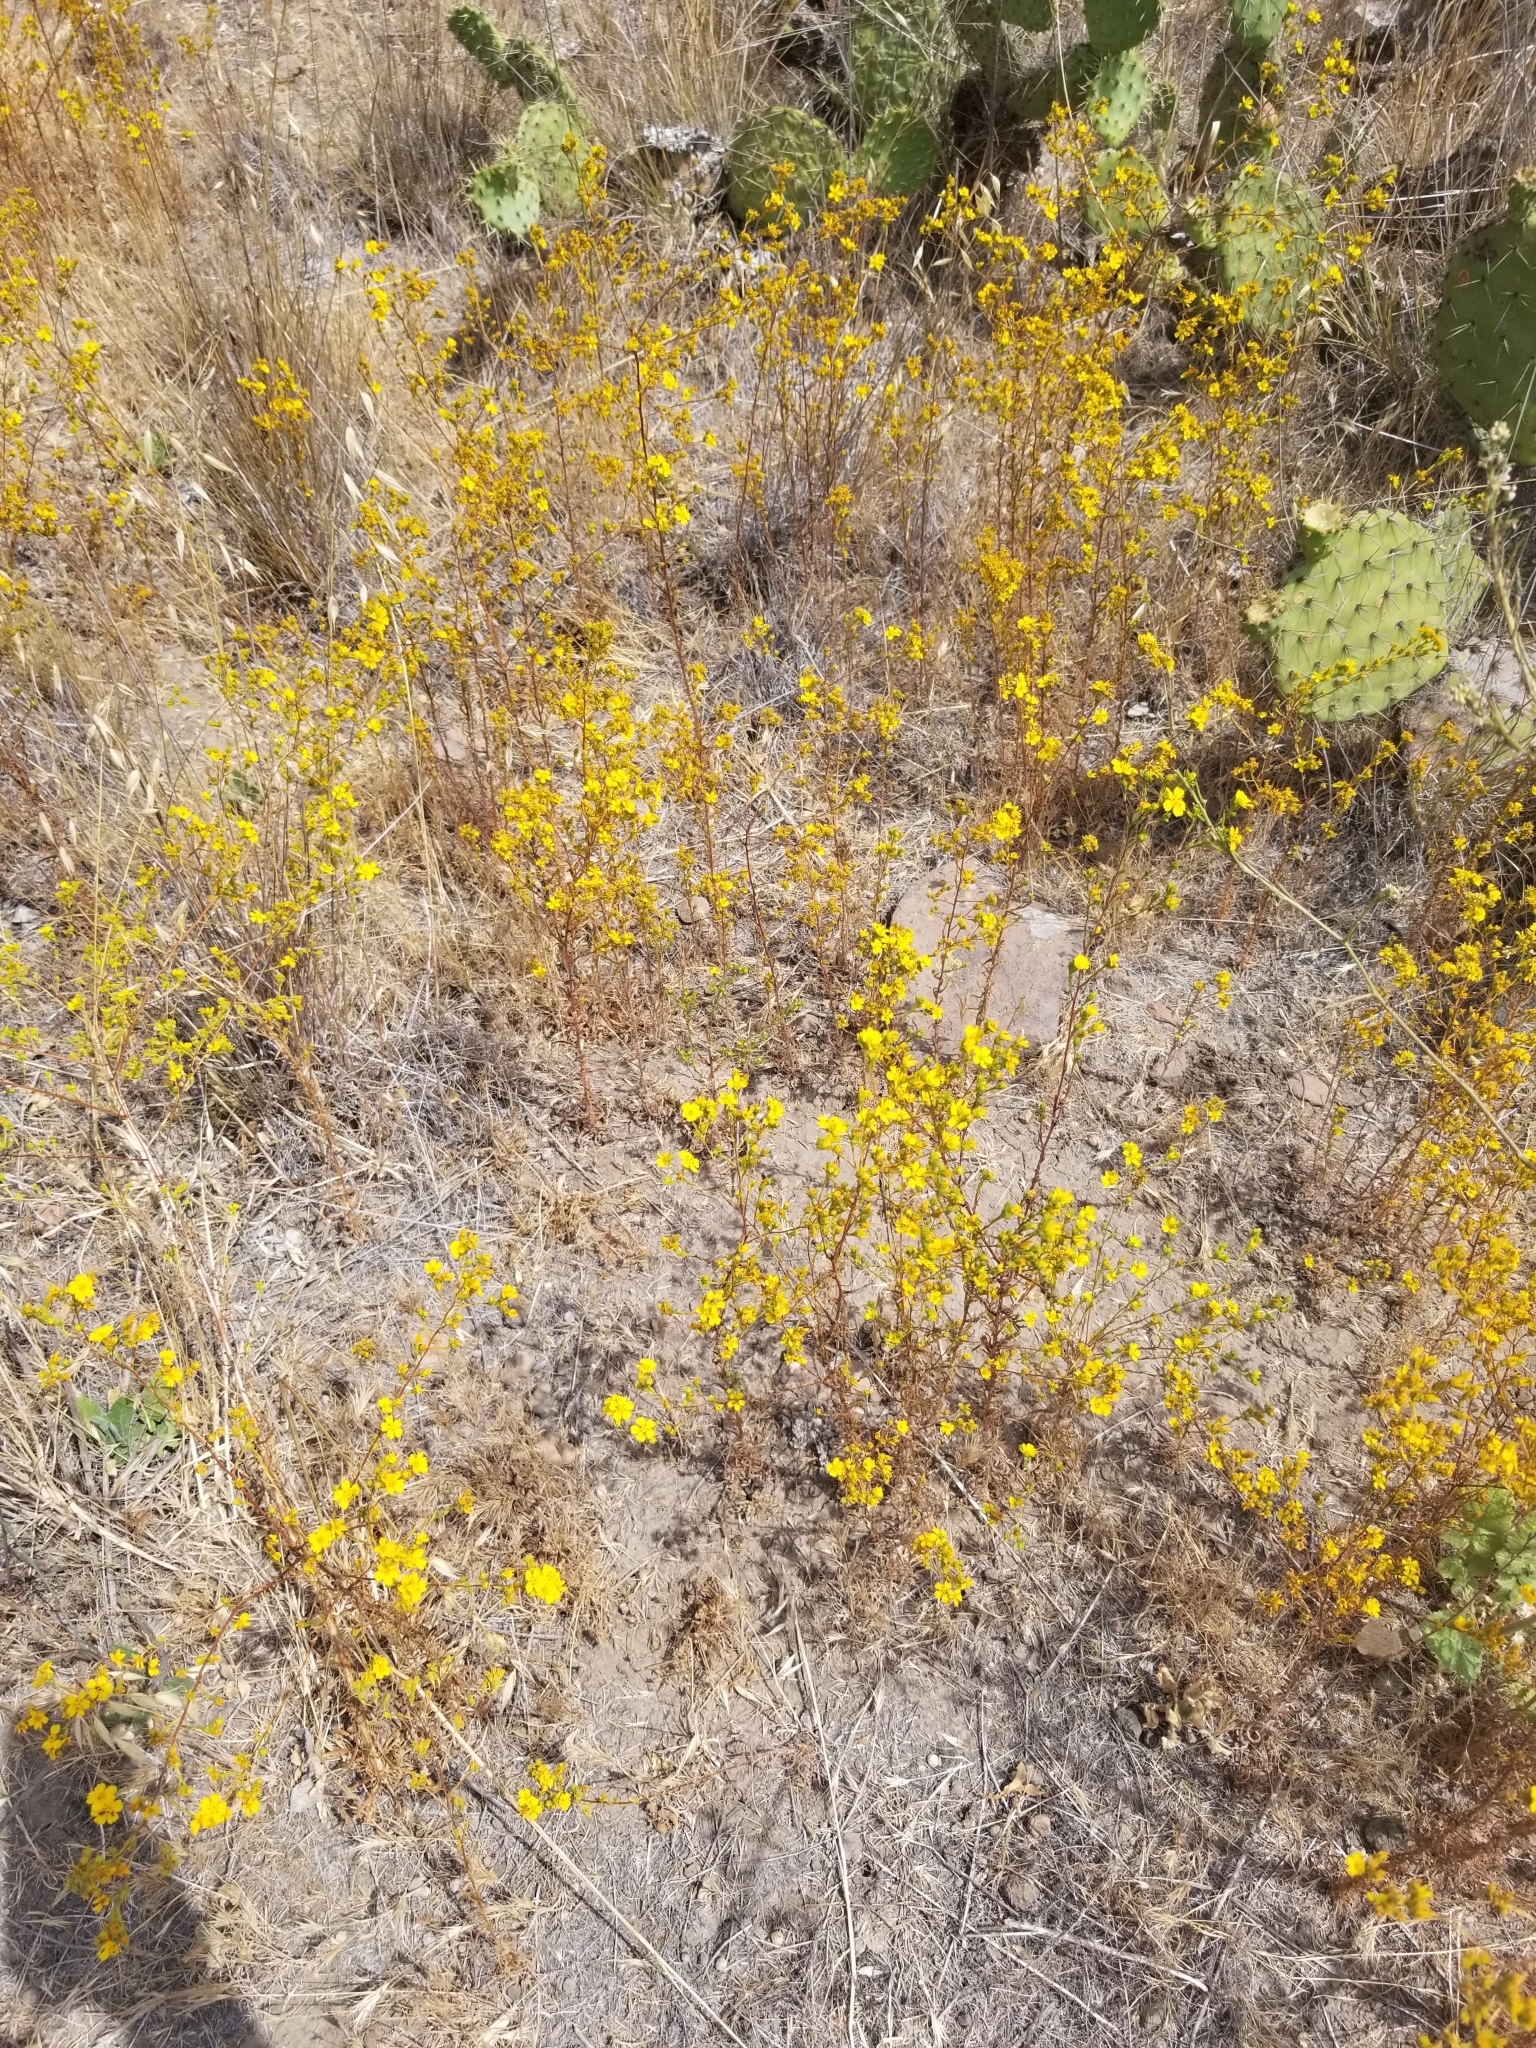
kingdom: Plantae
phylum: Tracheophyta
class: Magnoliopsida
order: Asterales
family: Asteraceae
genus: Deinandra
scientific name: Deinandra fasciculata
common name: Clustered tarweed
